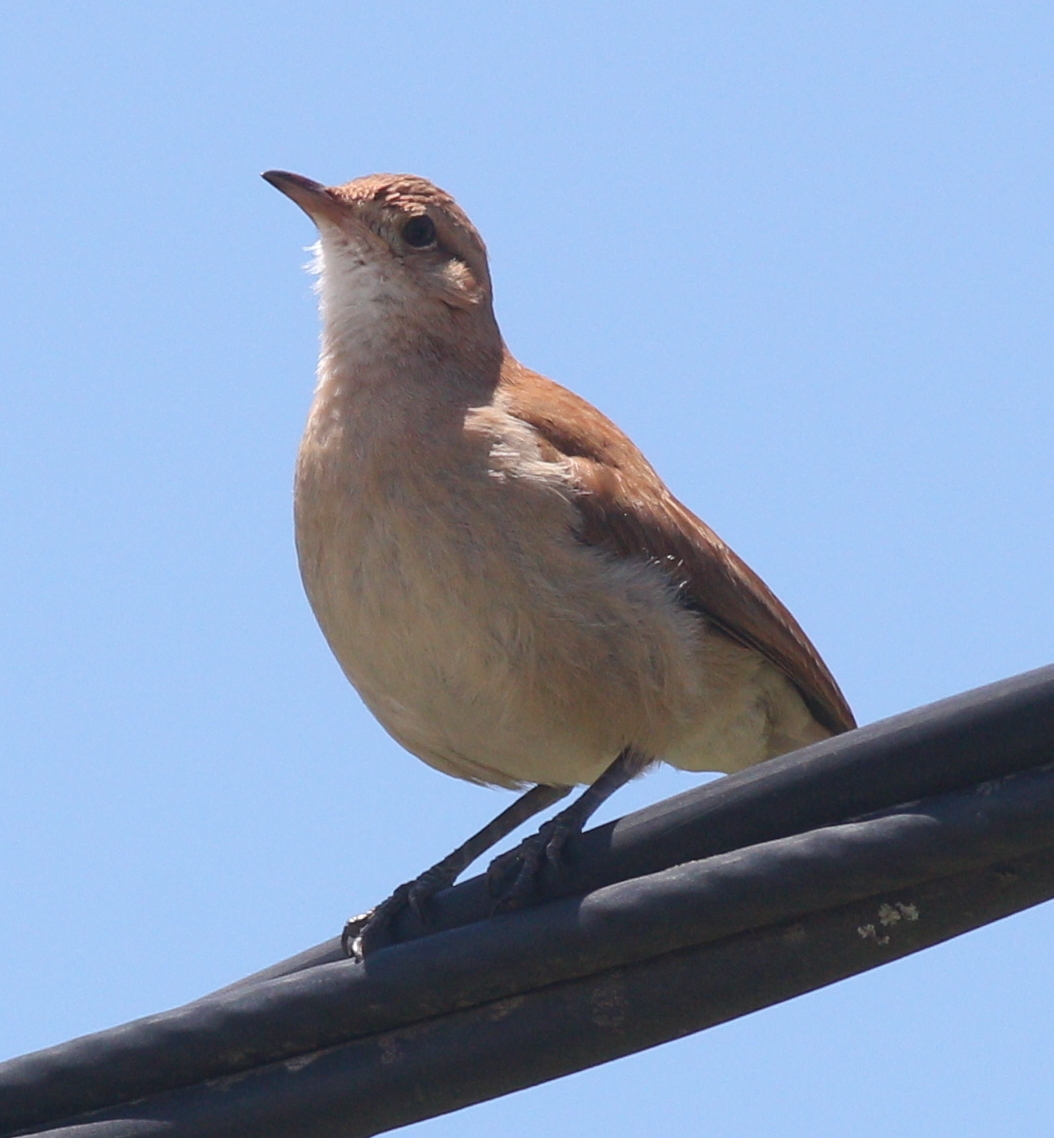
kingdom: Animalia
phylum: Chordata
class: Aves
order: Passeriformes
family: Furnariidae
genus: Furnarius
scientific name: Furnarius rufus
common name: Rufous hornero
